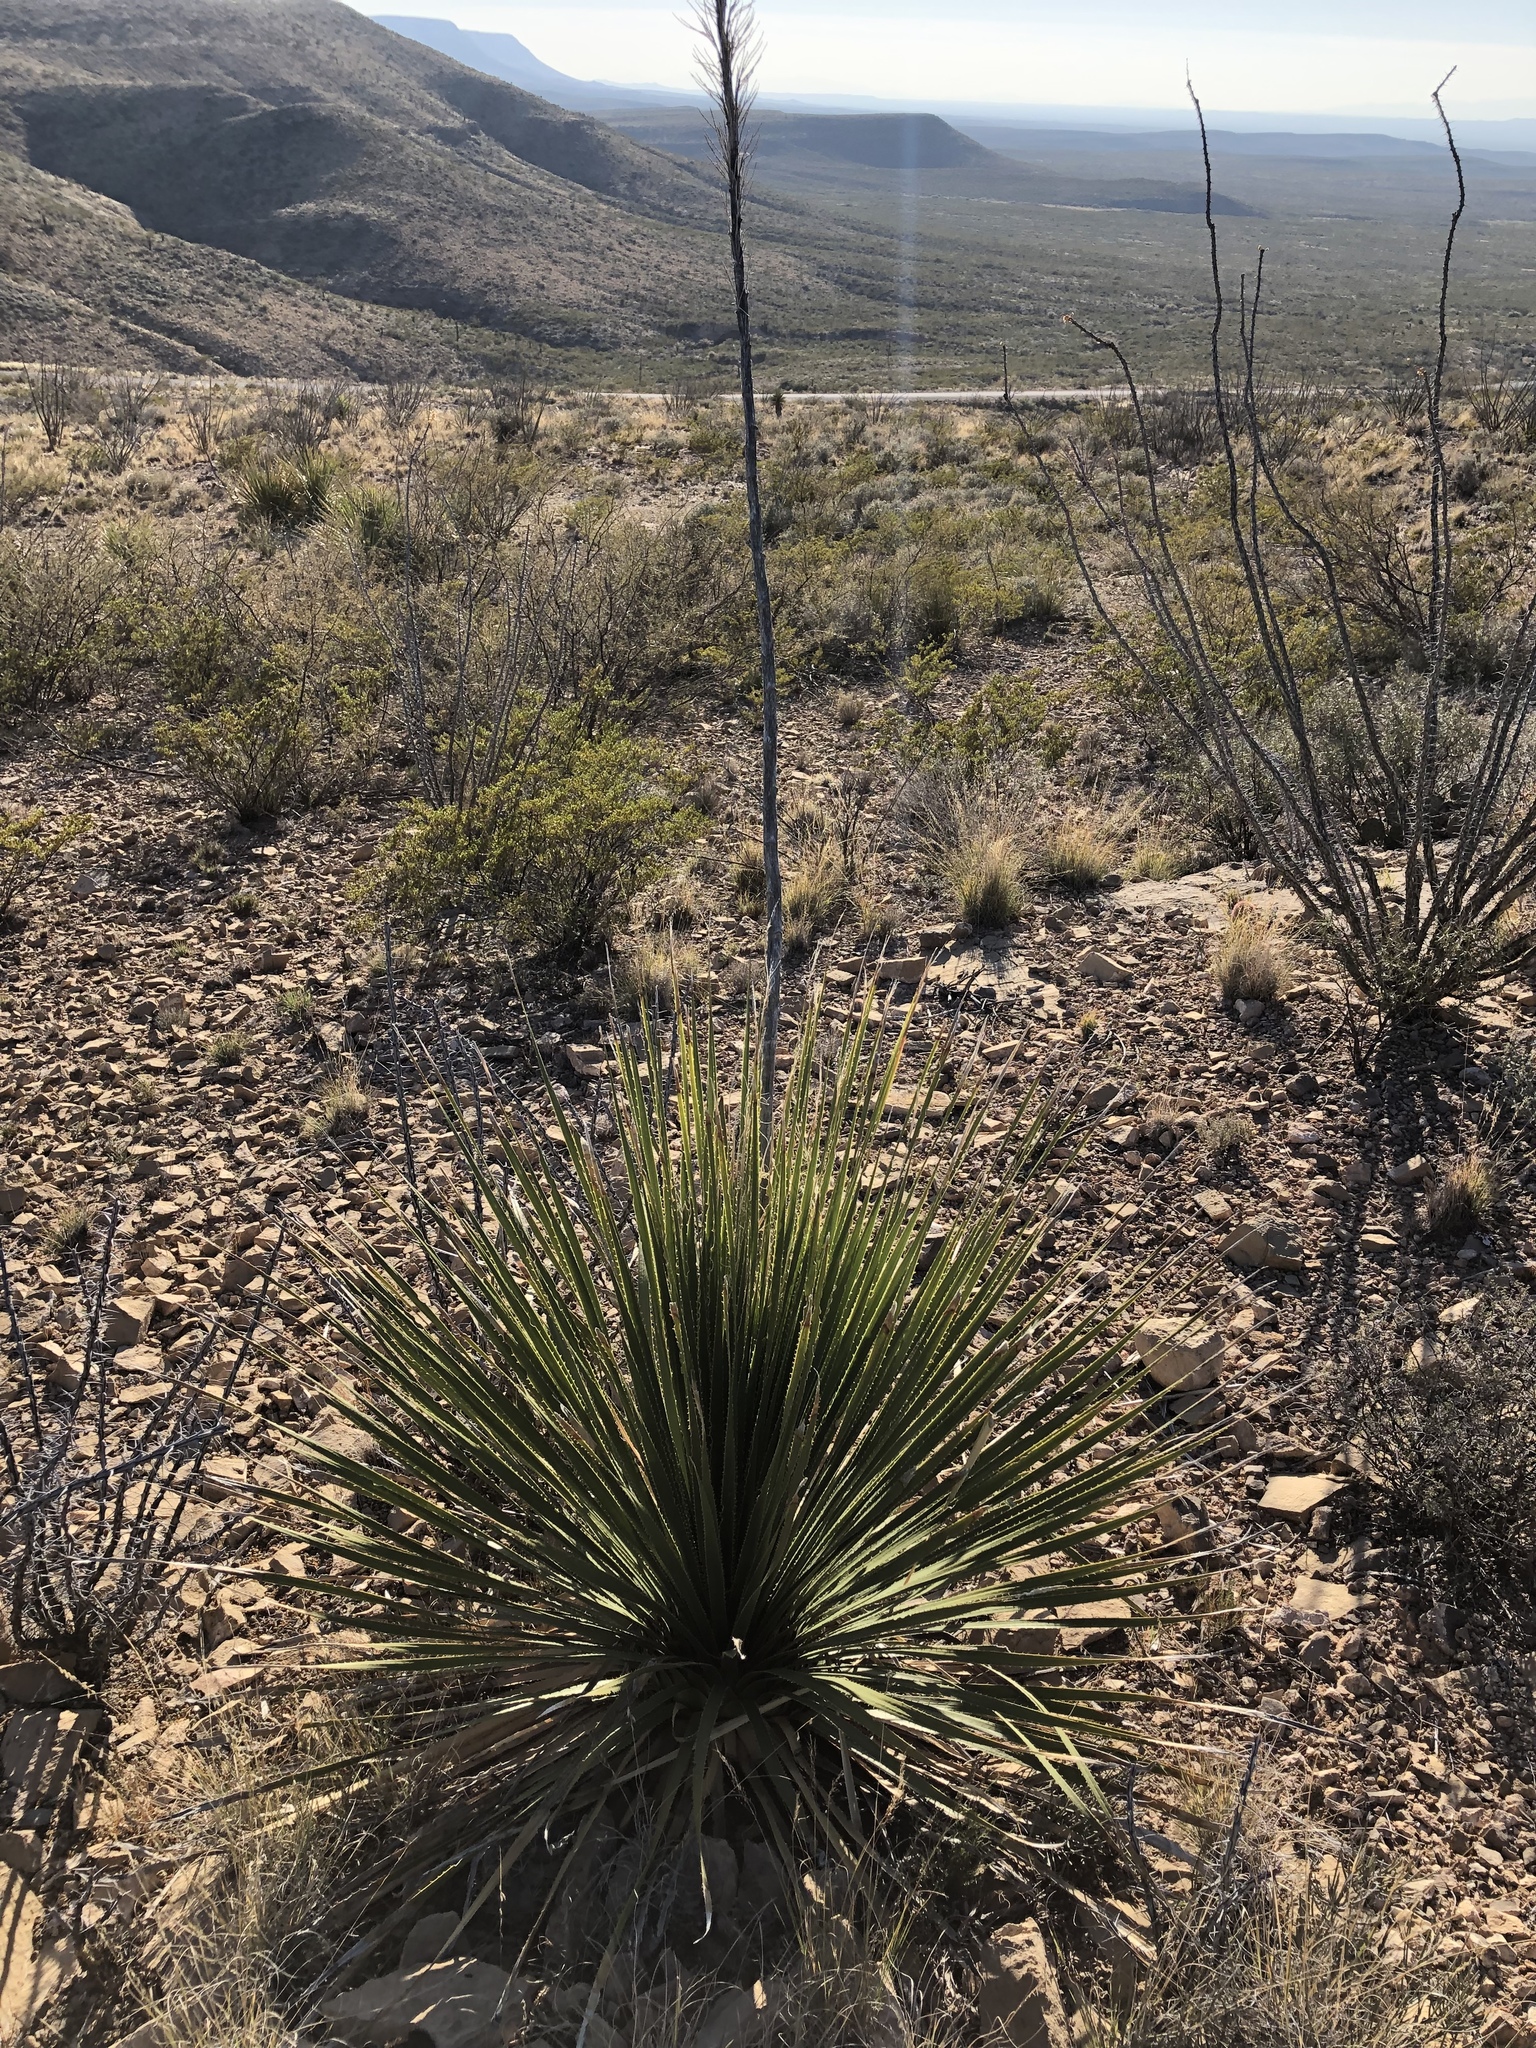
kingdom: Plantae
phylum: Tracheophyta
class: Liliopsida
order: Asparagales
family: Asparagaceae
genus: Dasylirion
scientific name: Dasylirion wheeleri
